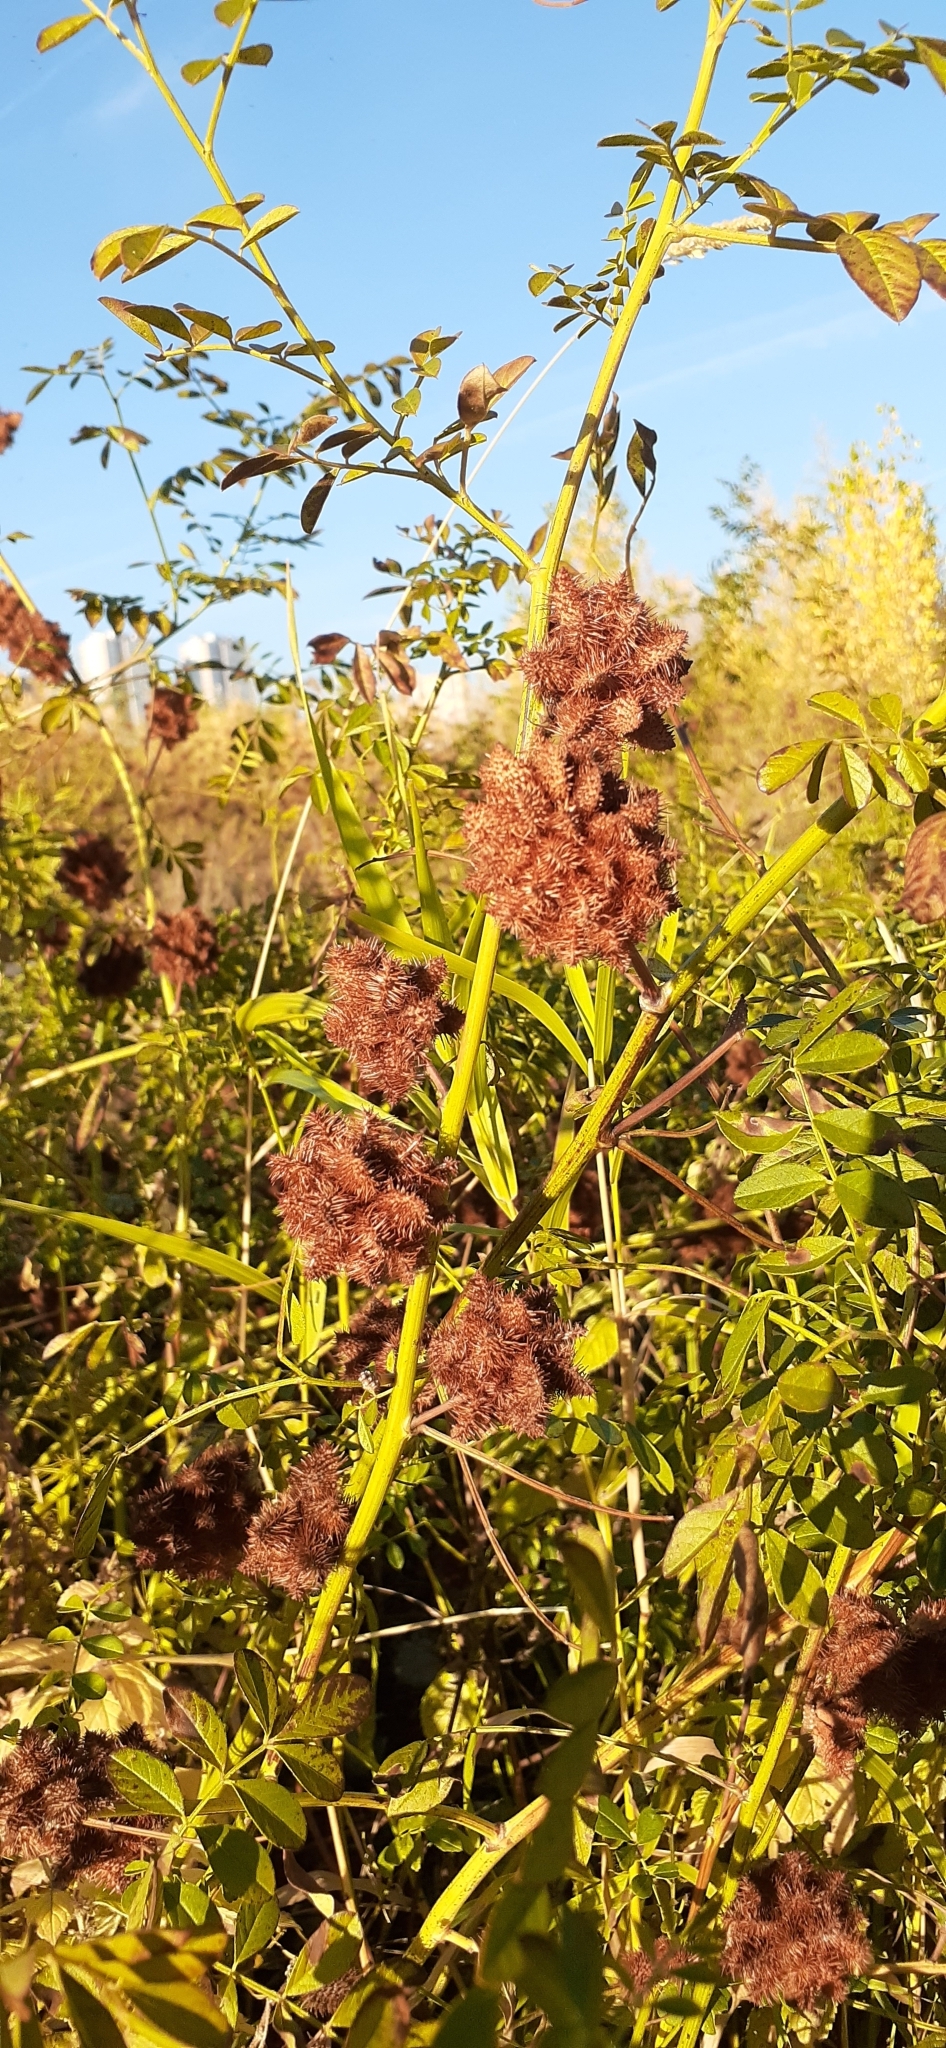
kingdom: Plantae
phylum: Tracheophyta
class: Magnoliopsida
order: Fabales
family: Fabaceae
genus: Glycyrrhiza
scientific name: Glycyrrhiza echinata
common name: German liquorice
